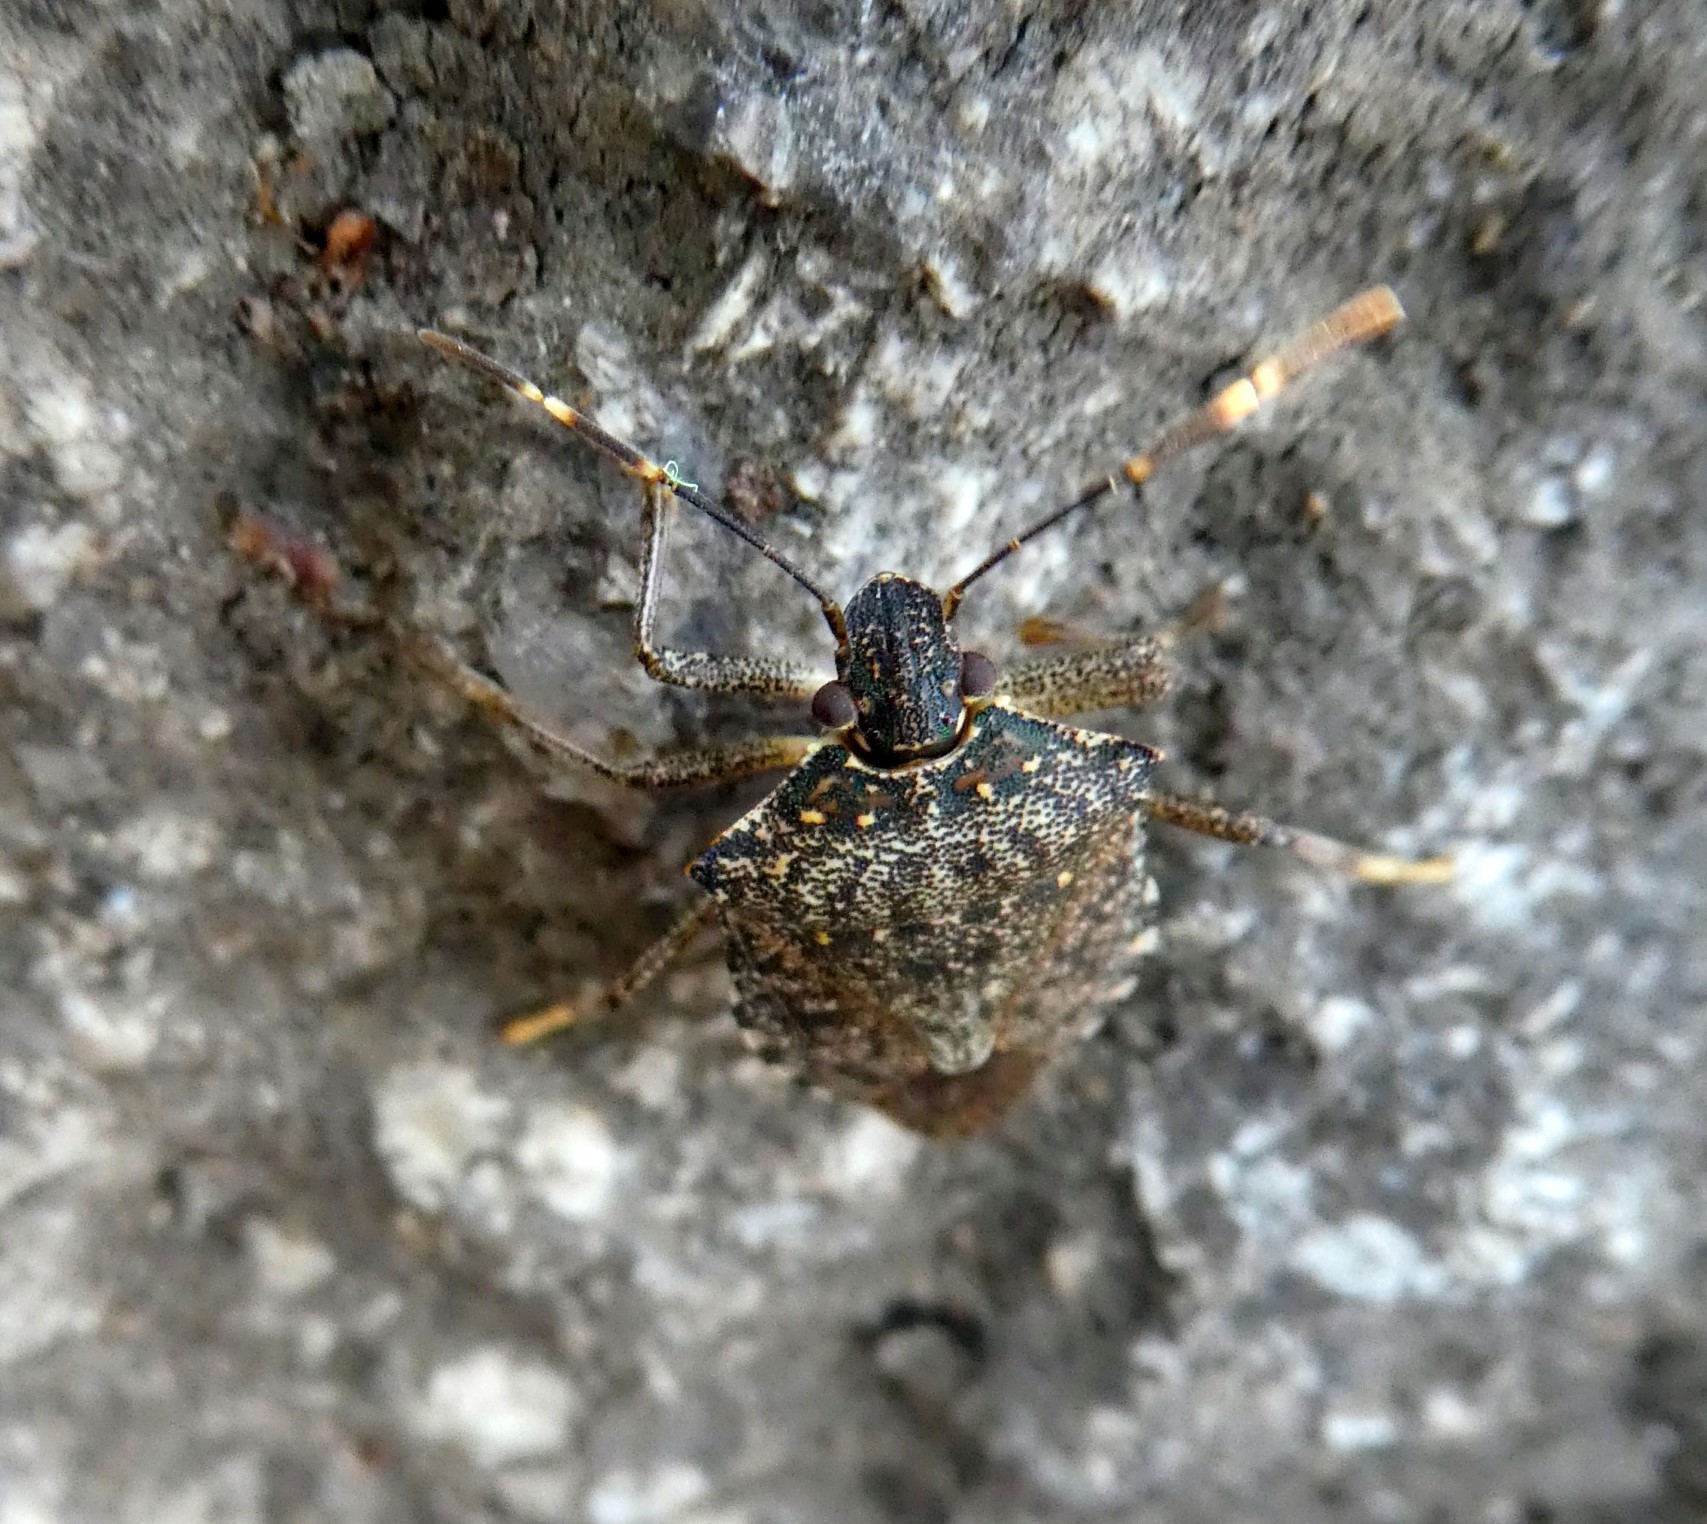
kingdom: Animalia
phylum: Arthropoda
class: Insecta
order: Hemiptera
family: Pentatomidae
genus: Halyomorpha
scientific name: Halyomorpha halys
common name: Brown marmorated stink bug
